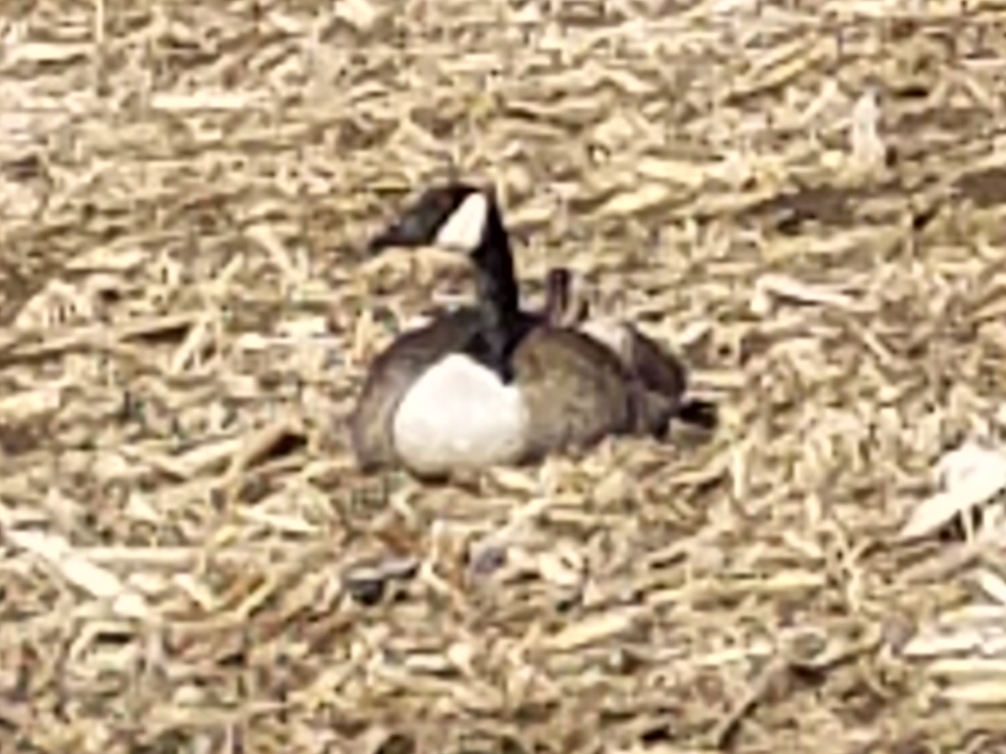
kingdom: Animalia
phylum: Chordata
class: Aves
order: Anseriformes
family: Anatidae
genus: Branta
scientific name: Branta canadensis
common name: Canada goose
